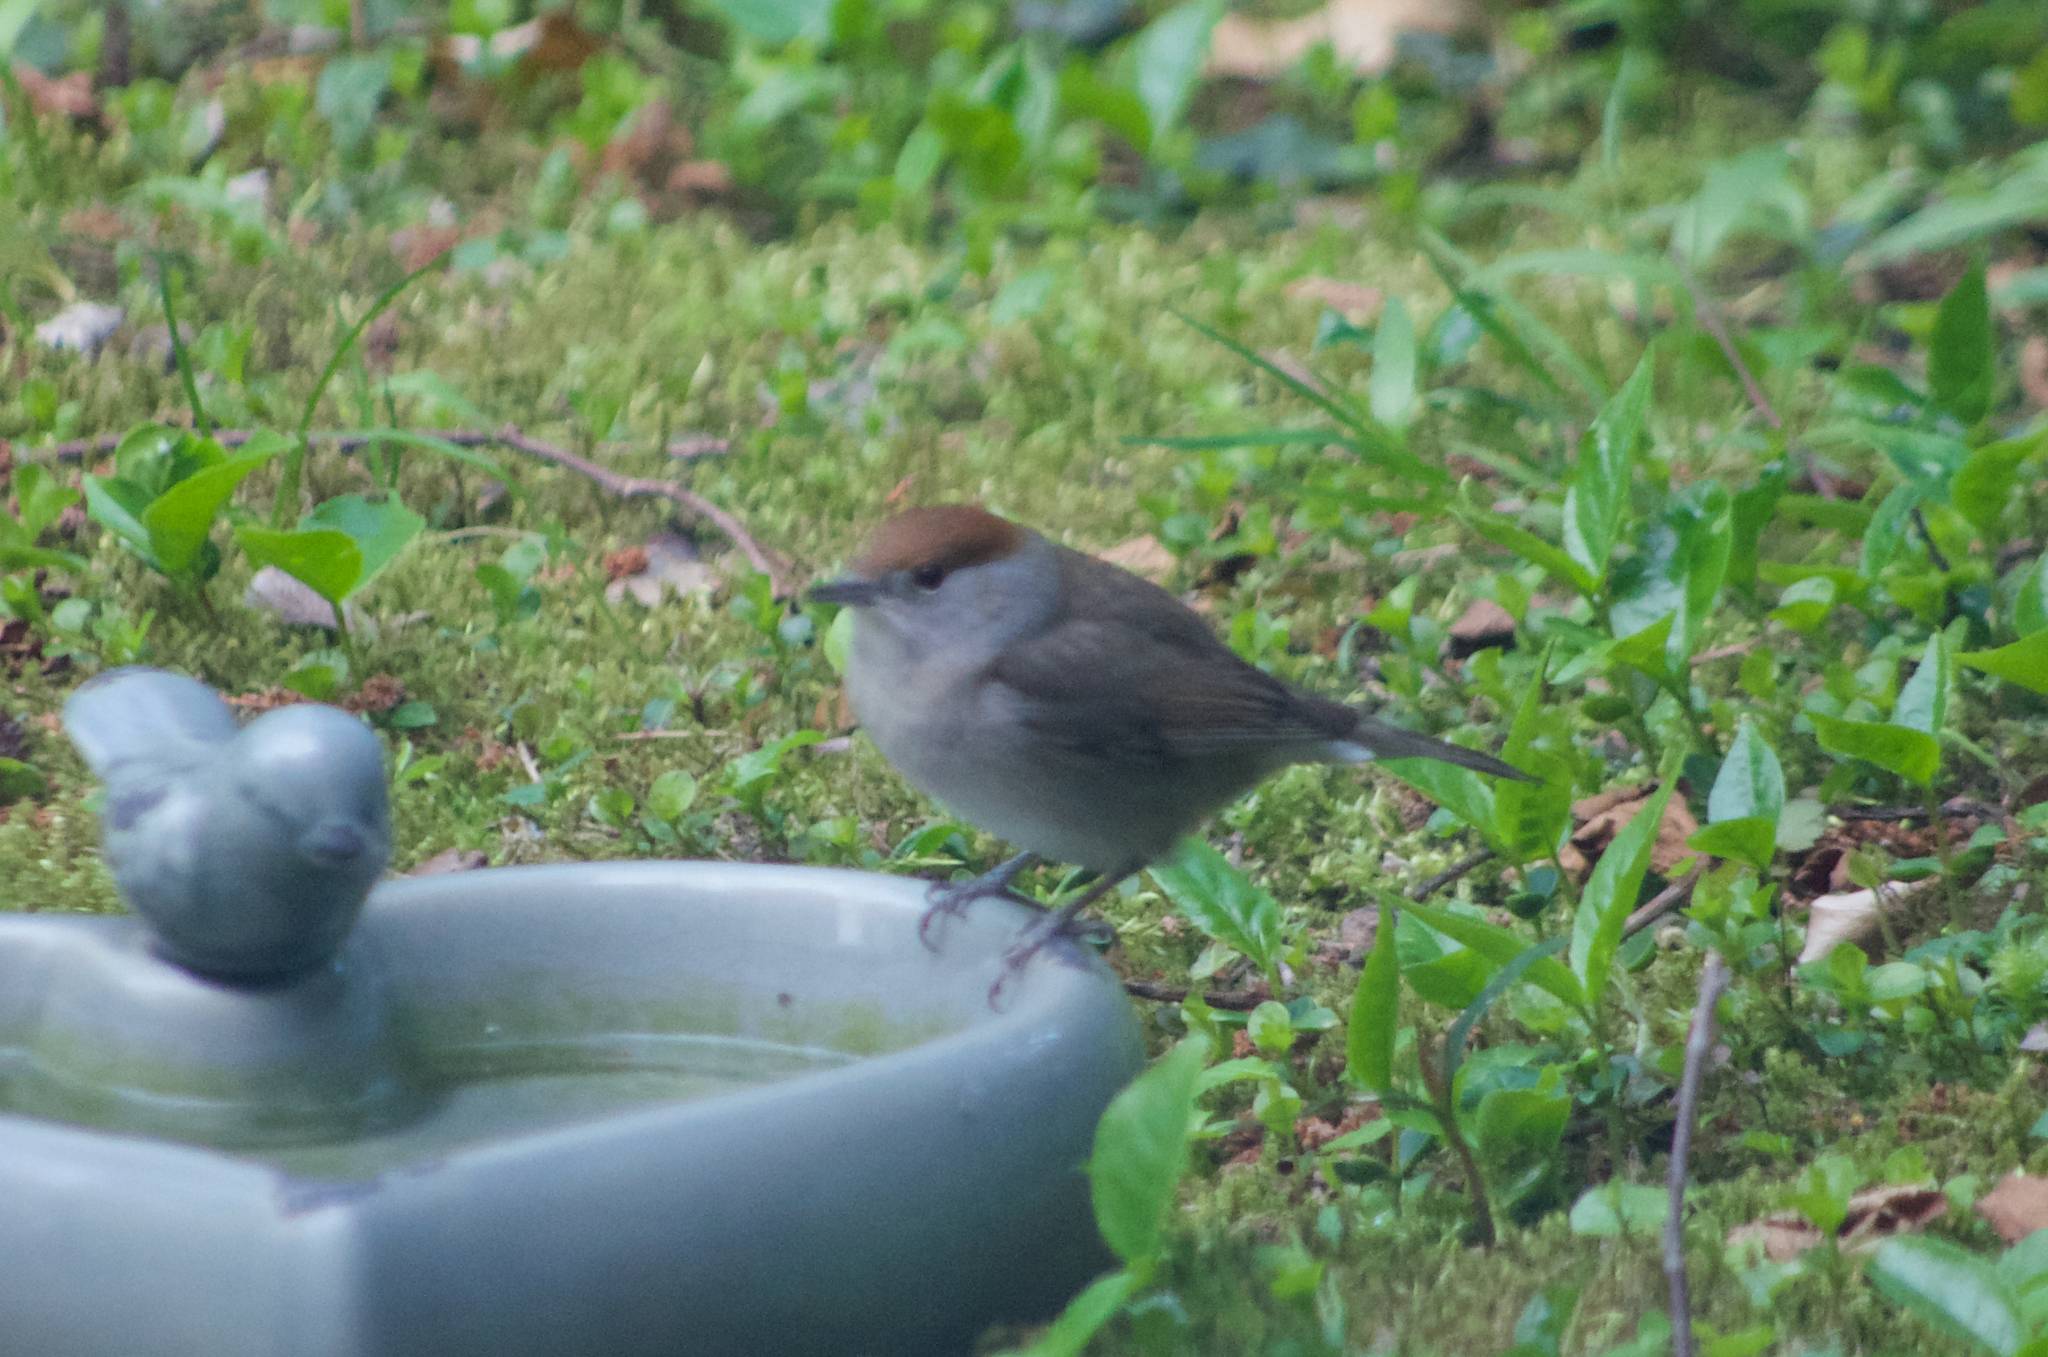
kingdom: Animalia
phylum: Chordata
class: Aves
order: Passeriformes
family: Sylviidae
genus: Sylvia
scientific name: Sylvia atricapilla
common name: Eurasian blackcap
